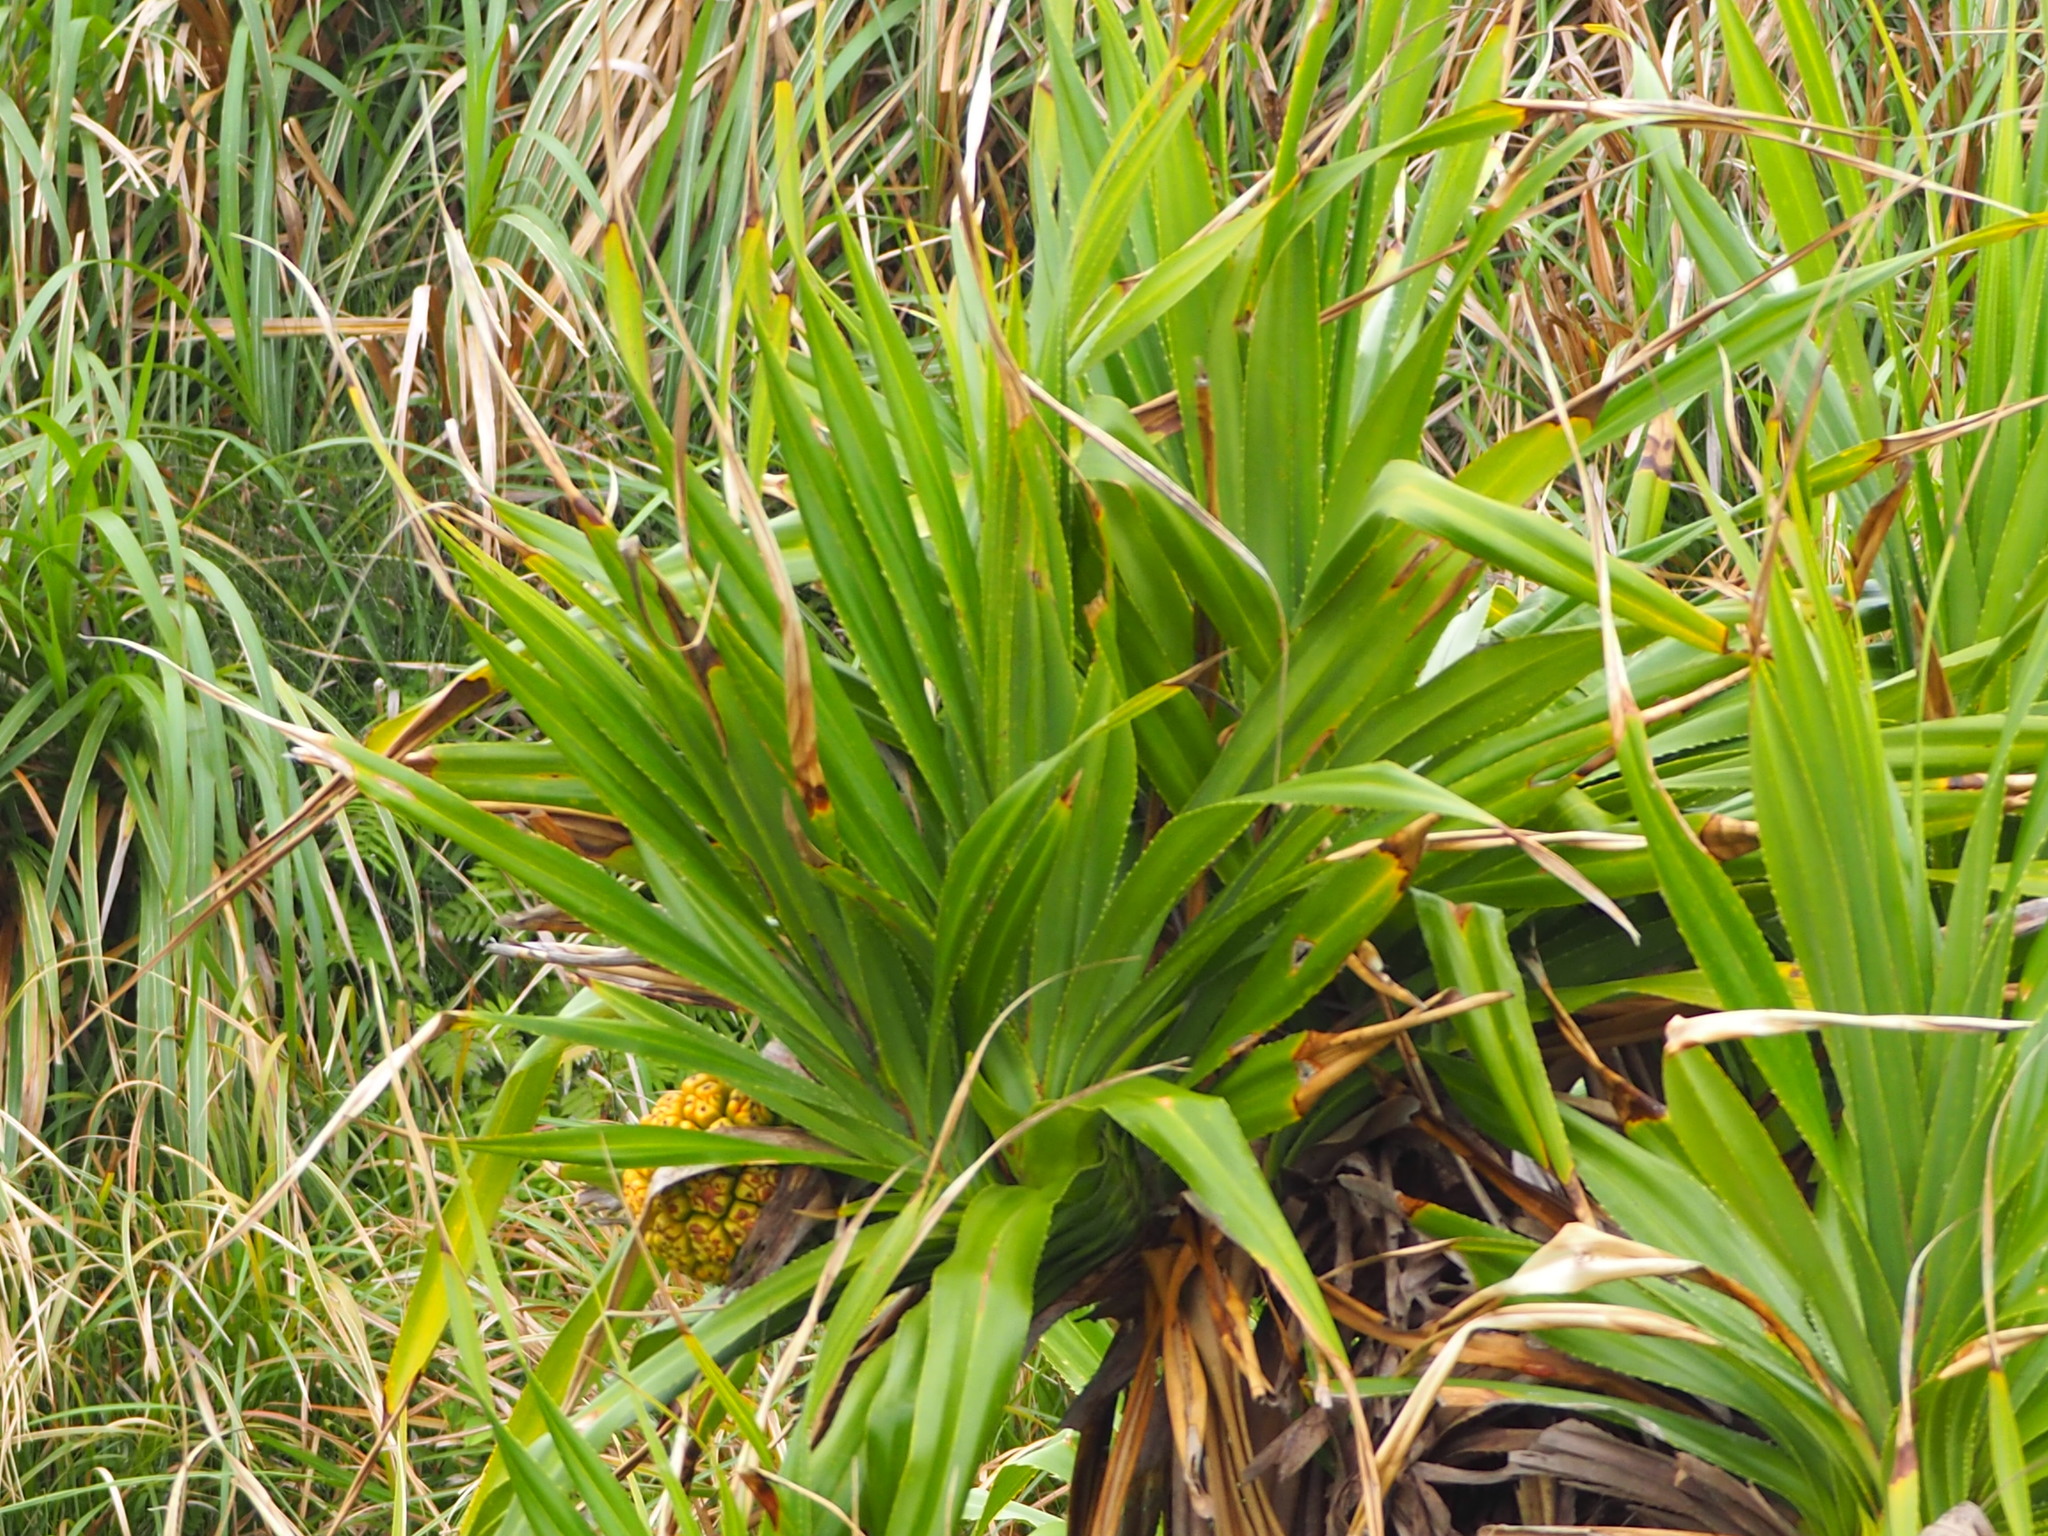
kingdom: Plantae
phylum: Tracheophyta
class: Liliopsida
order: Pandanales
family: Pandanaceae
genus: Pandanus
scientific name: Pandanus odorifer
